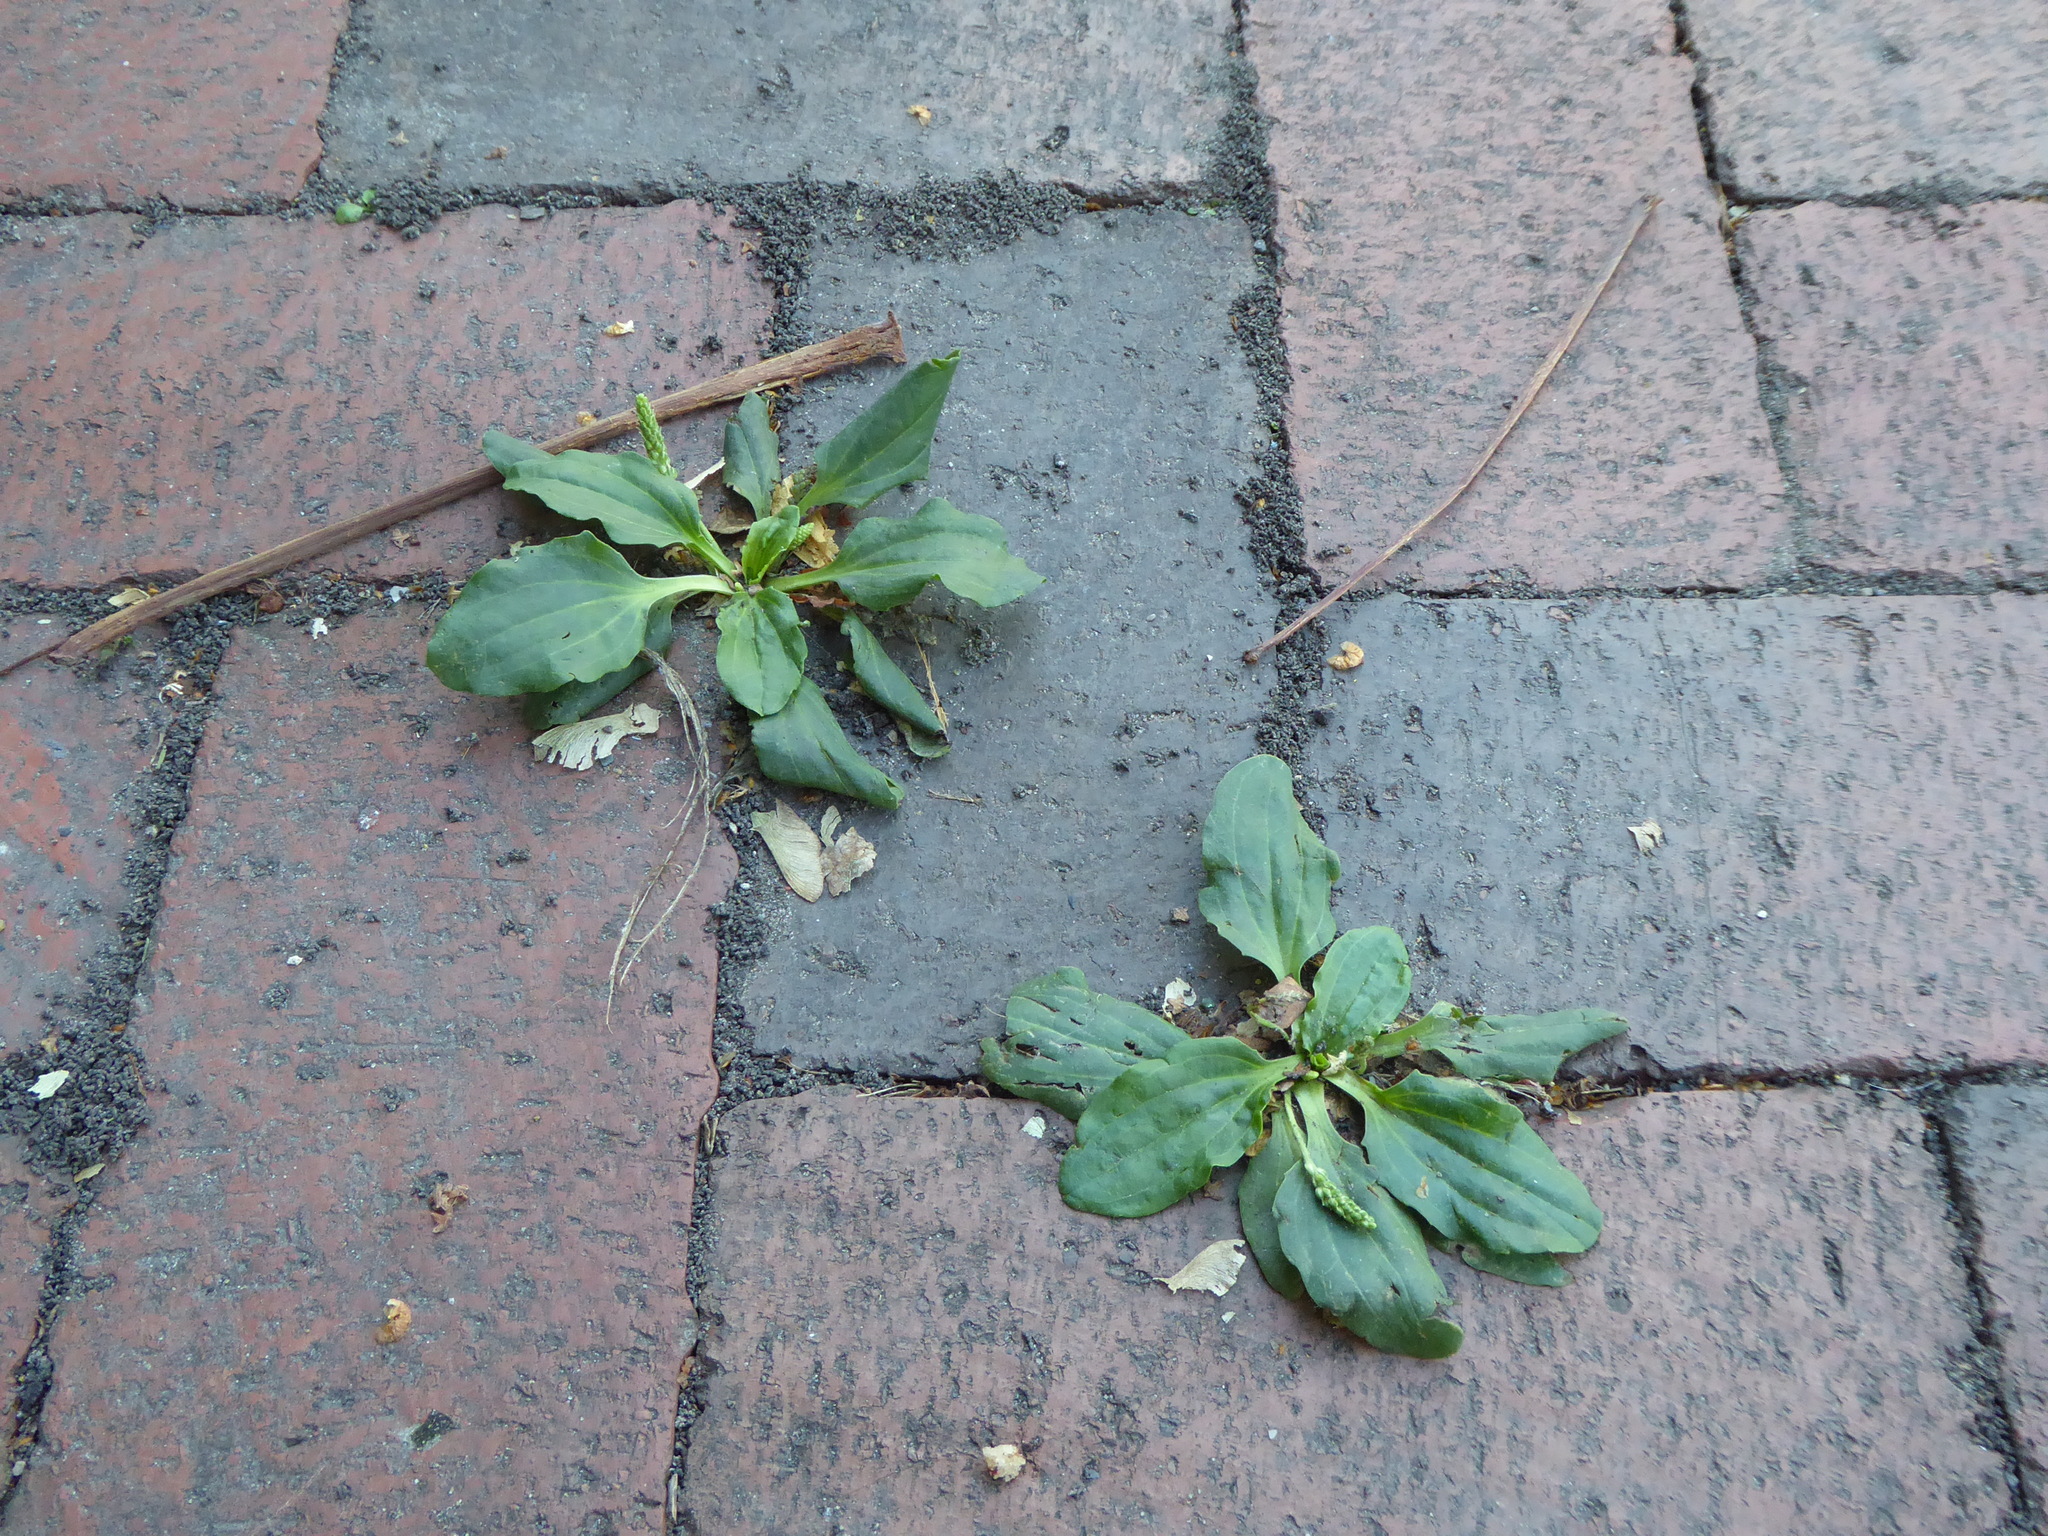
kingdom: Plantae
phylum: Tracheophyta
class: Magnoliopsida
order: Lamiales
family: Plantaginaceae
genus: Plantago
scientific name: Plantago major
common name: Common plantain
